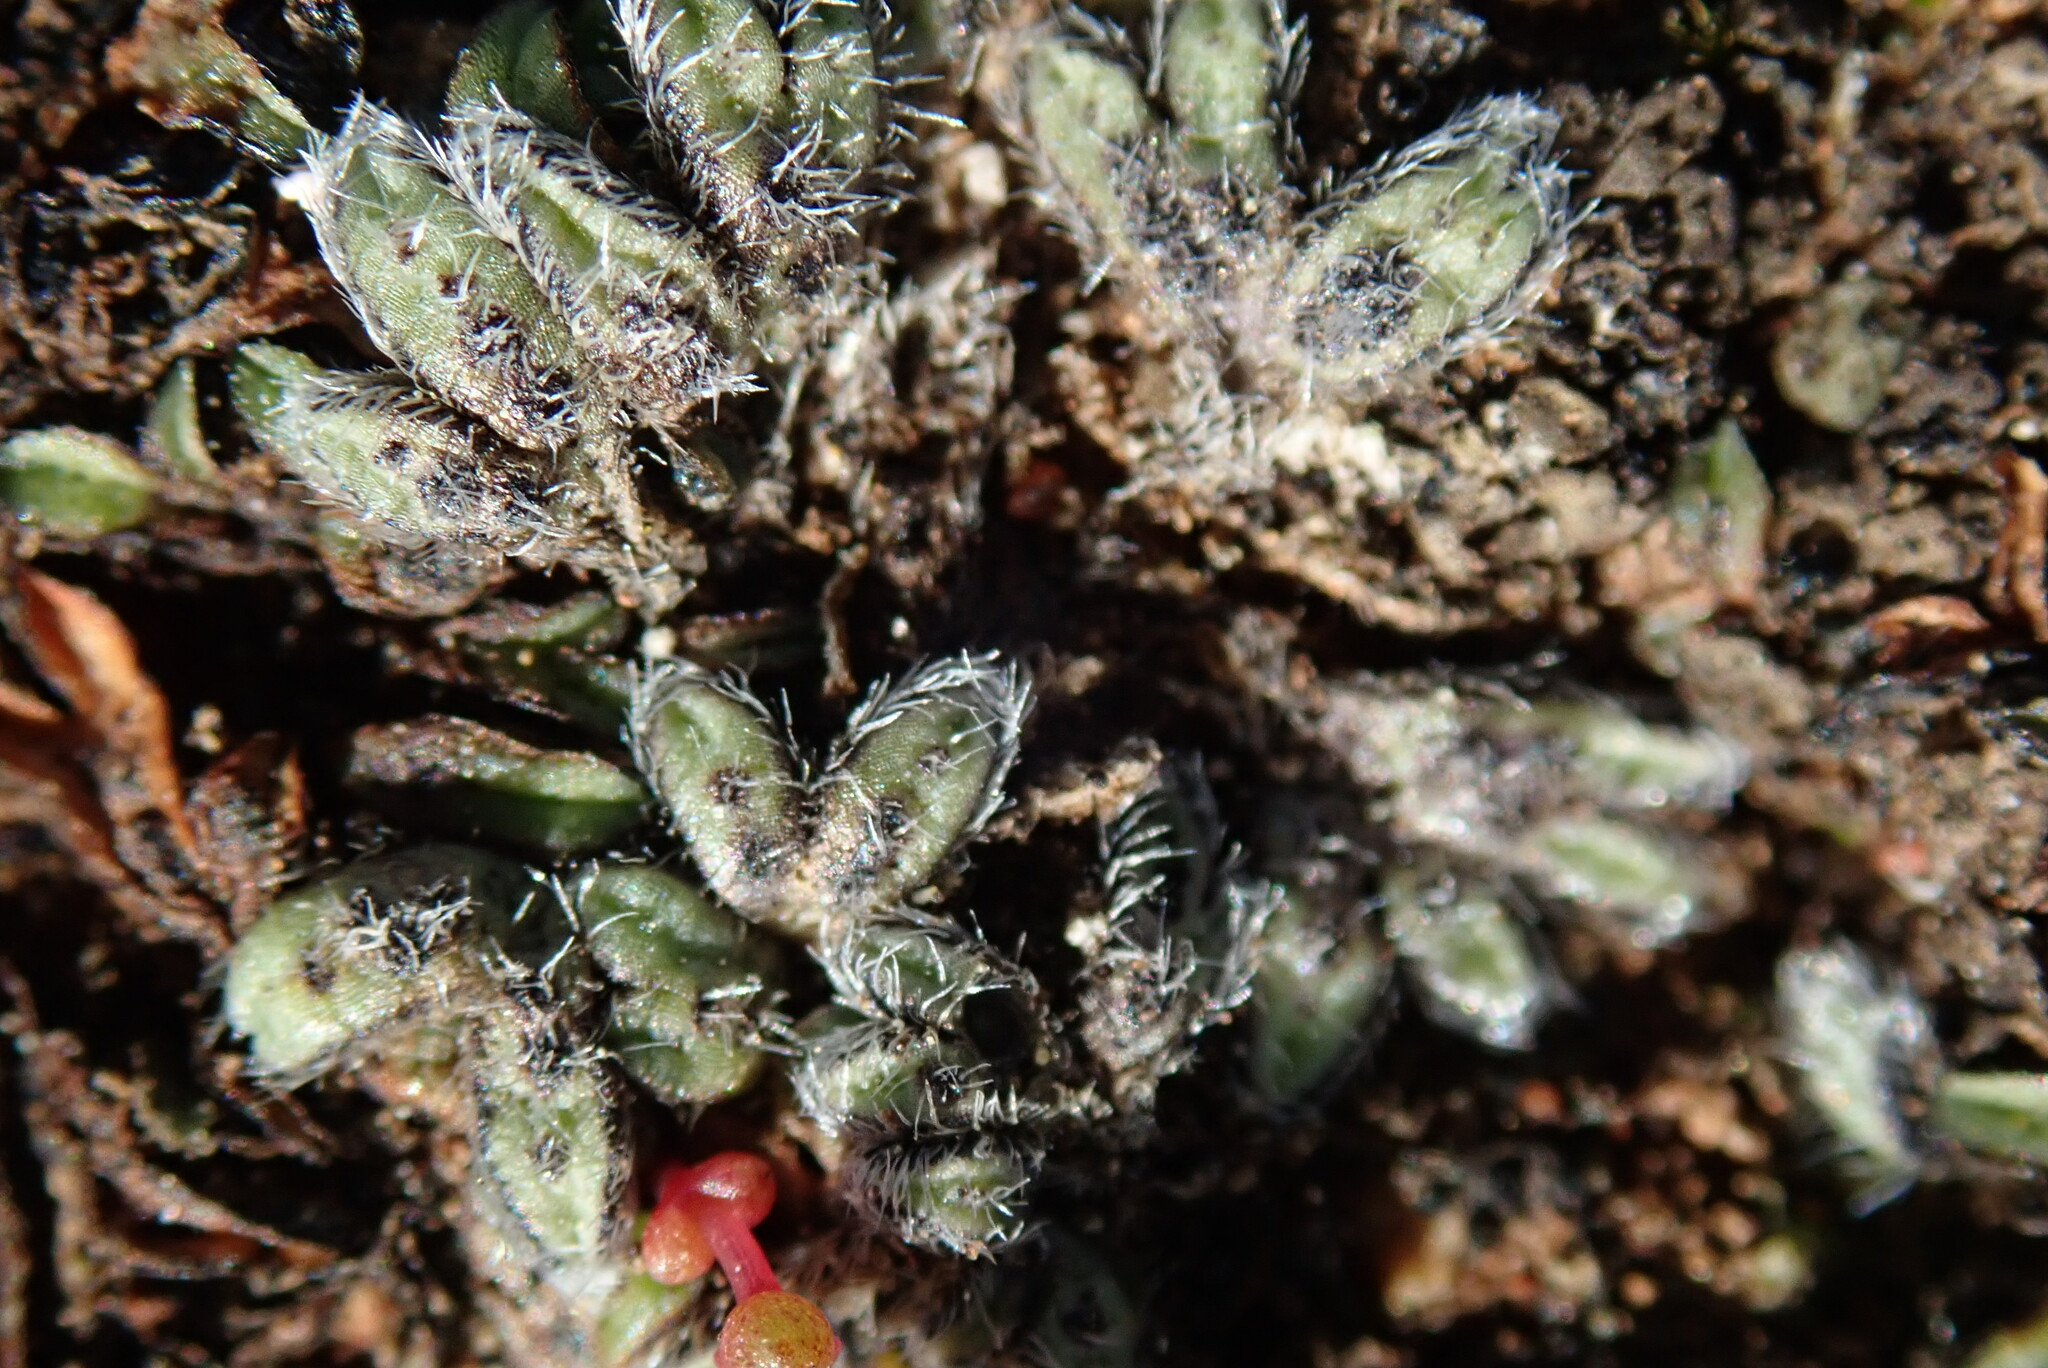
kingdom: Plantae
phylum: Marchantiophyta
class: Marchantiopsida
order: Marchantiales
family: Ricciaceae
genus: Riccia
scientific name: Riccia trichocarpa
